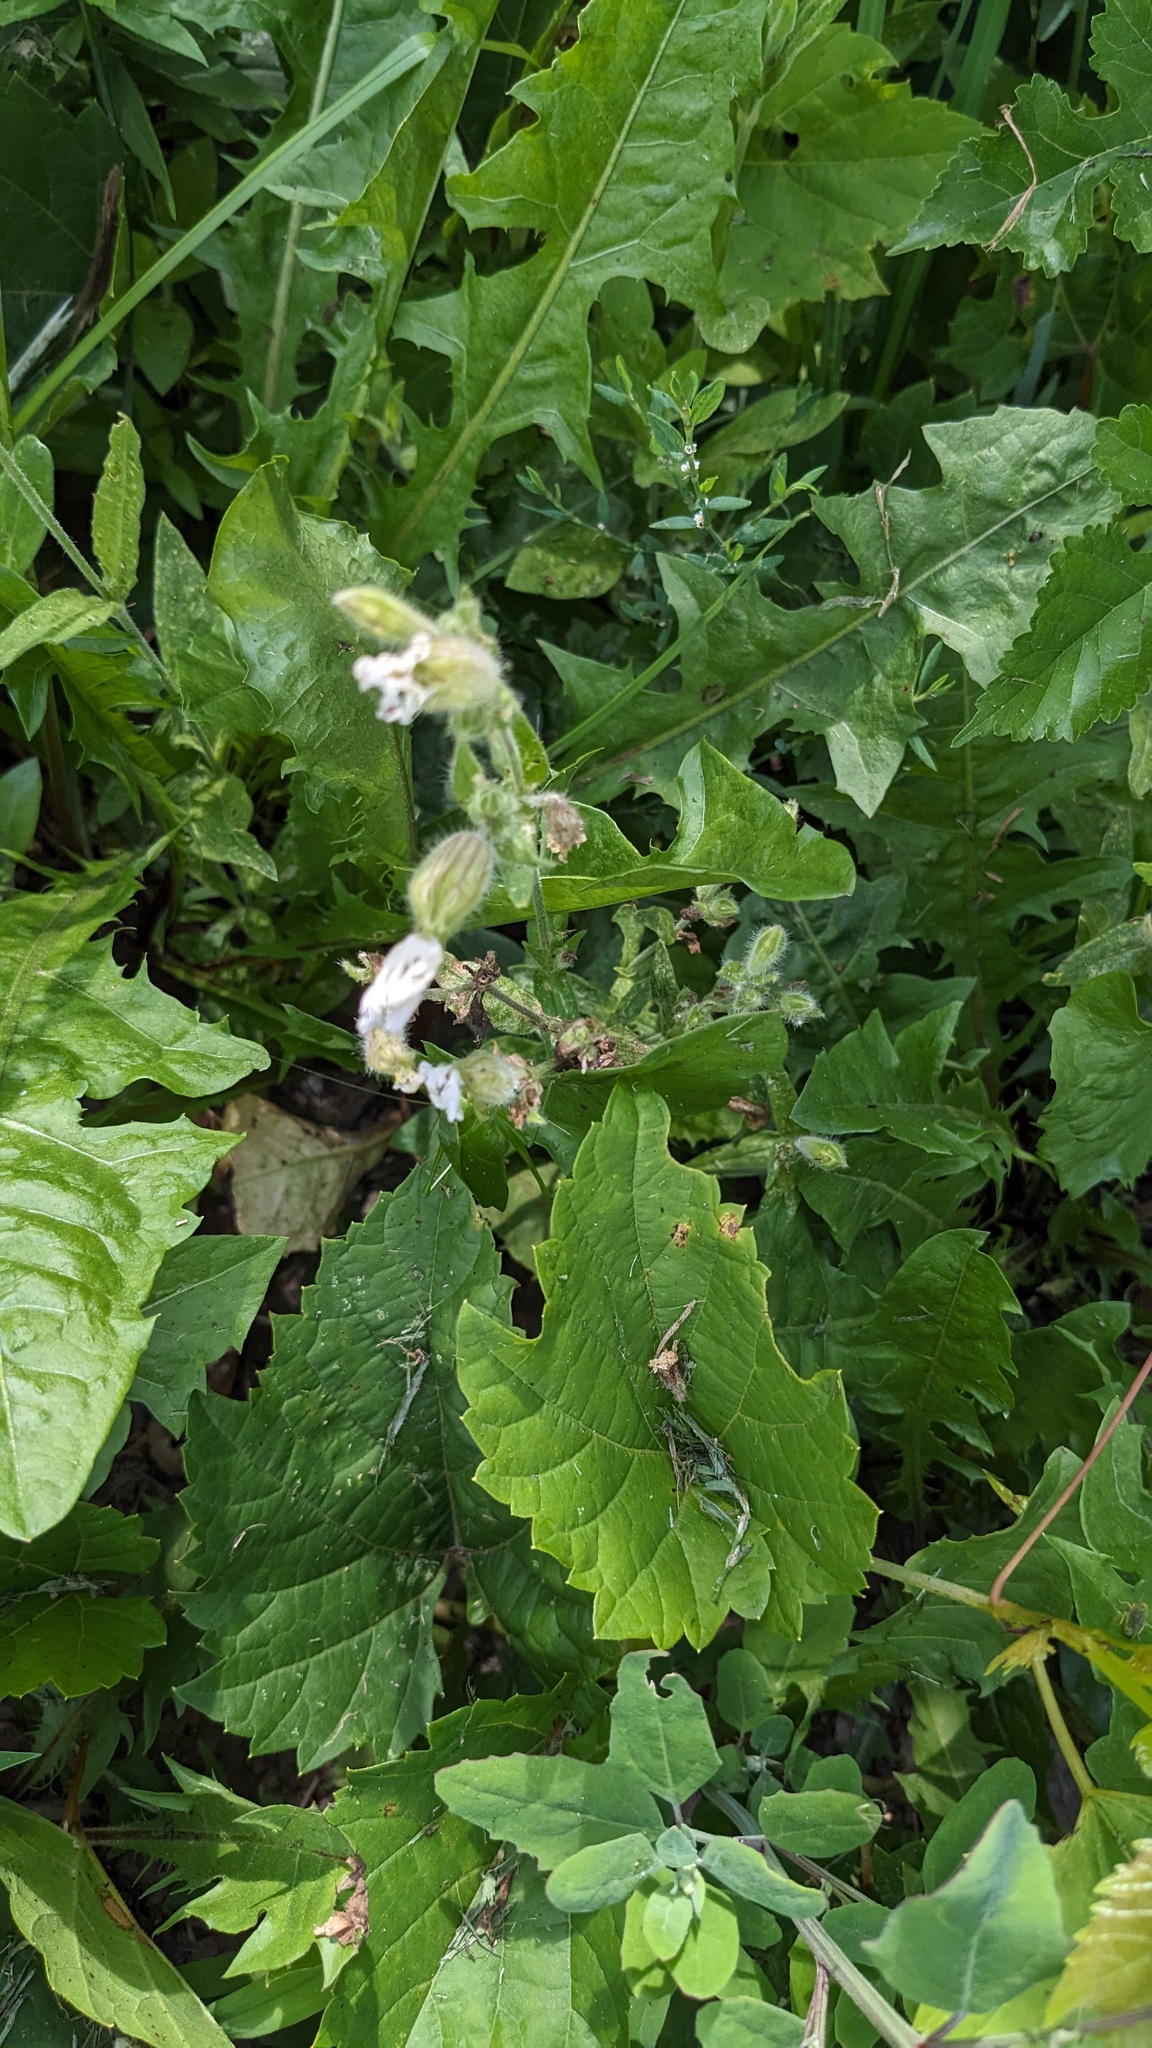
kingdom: Plantae
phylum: Tracheophyta
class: Magnoliopsida
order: Caryophyllales
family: Caryophyllaceae
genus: Silene
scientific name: Silene latifolia
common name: White campion
